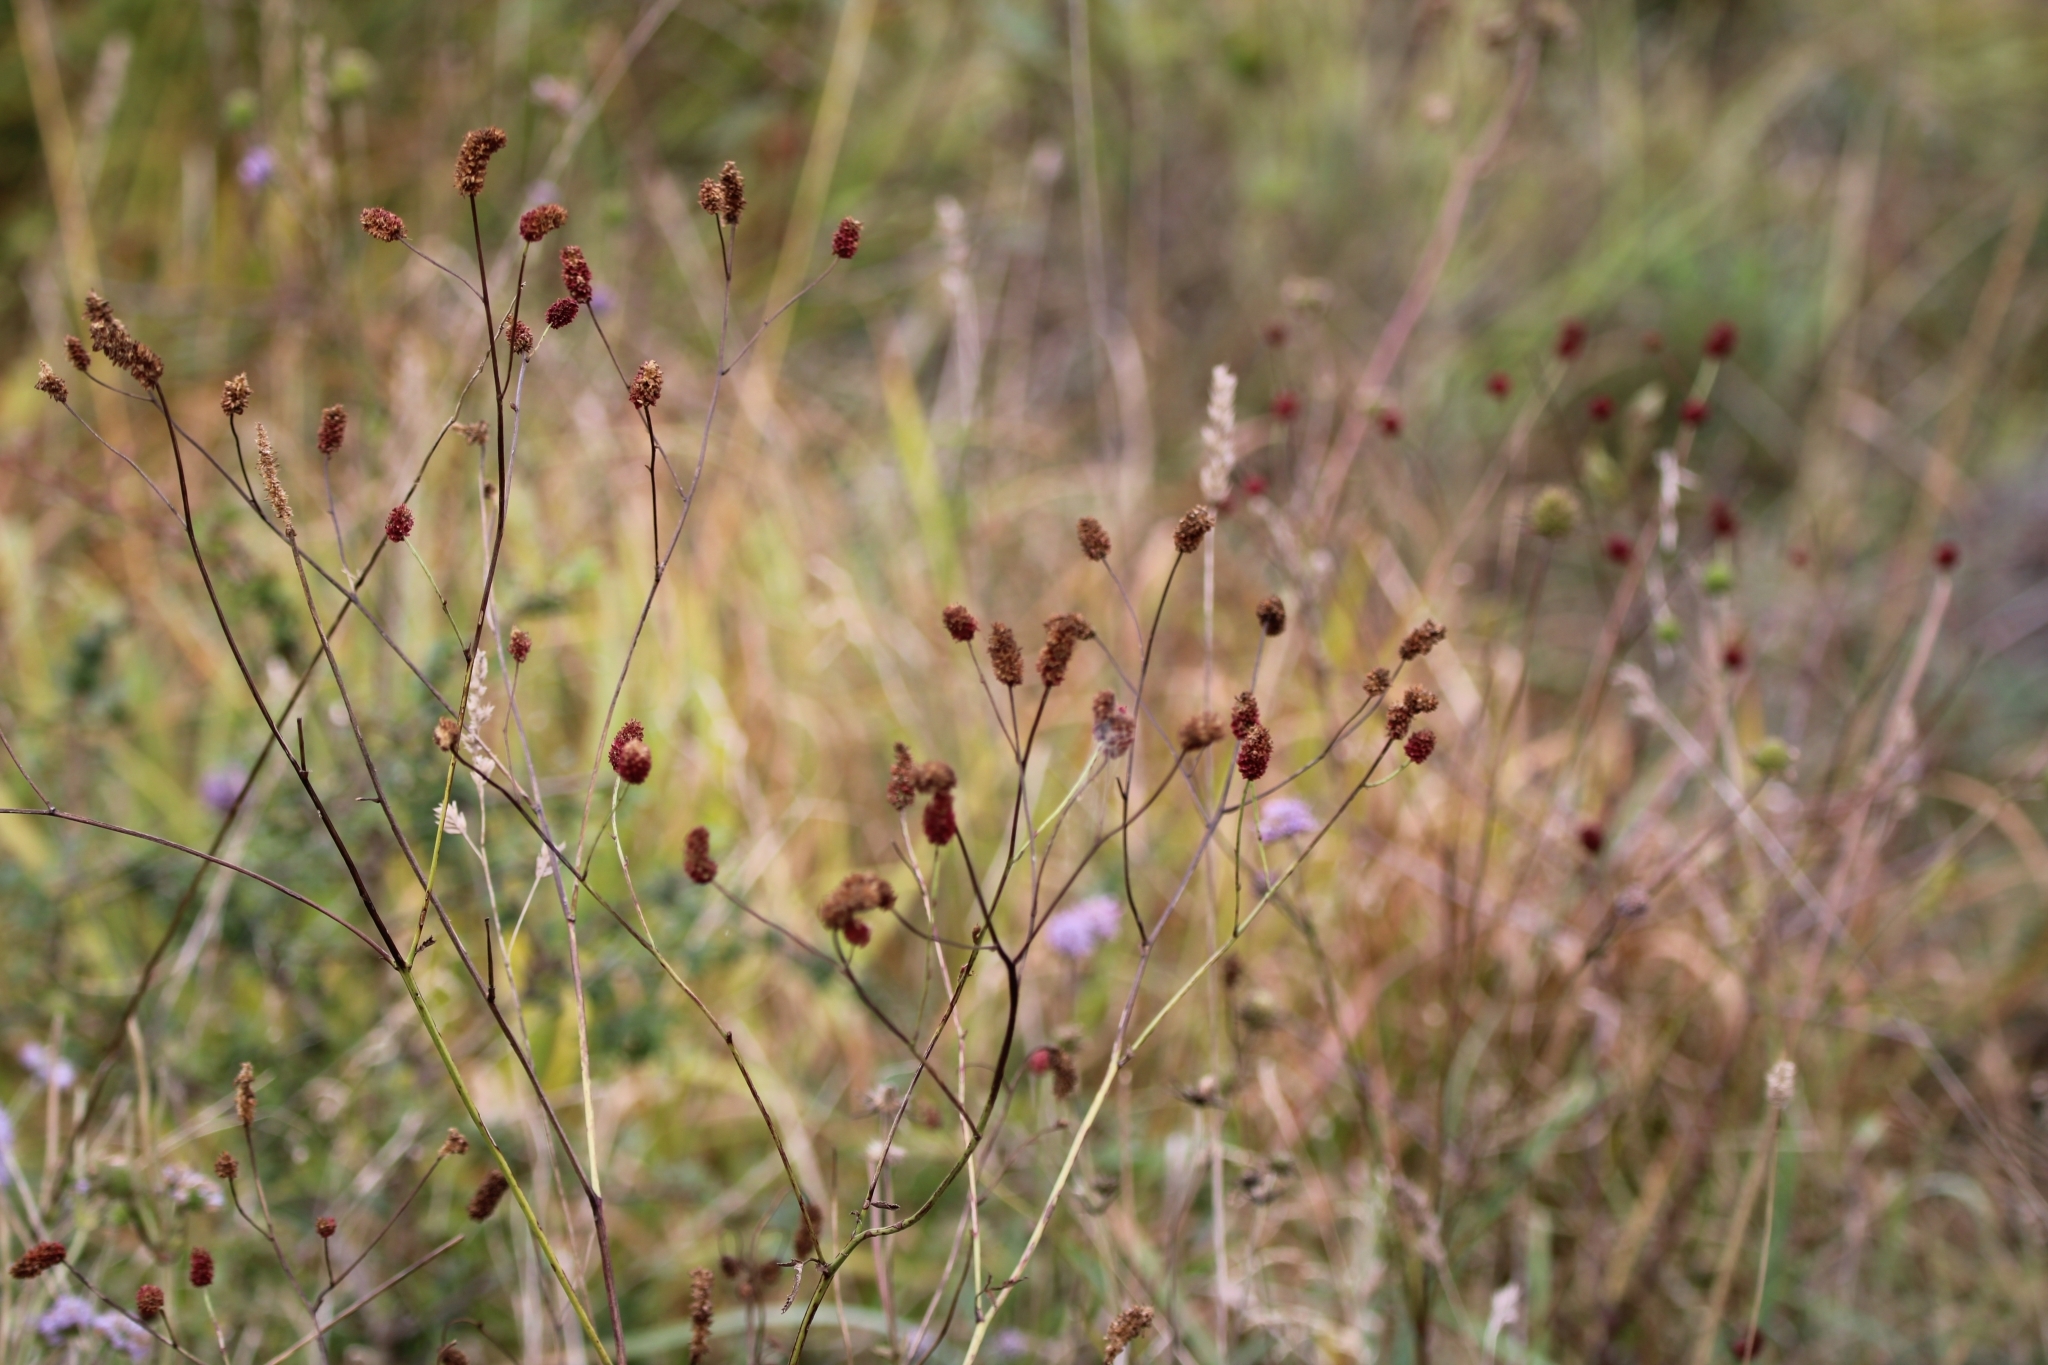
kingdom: Plantae
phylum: Tracheophyta
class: Magnoliopsida
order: Rosales
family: Rosaceae
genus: Sanguisorba
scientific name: Sanguisorba officinalis
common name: Great burnet
